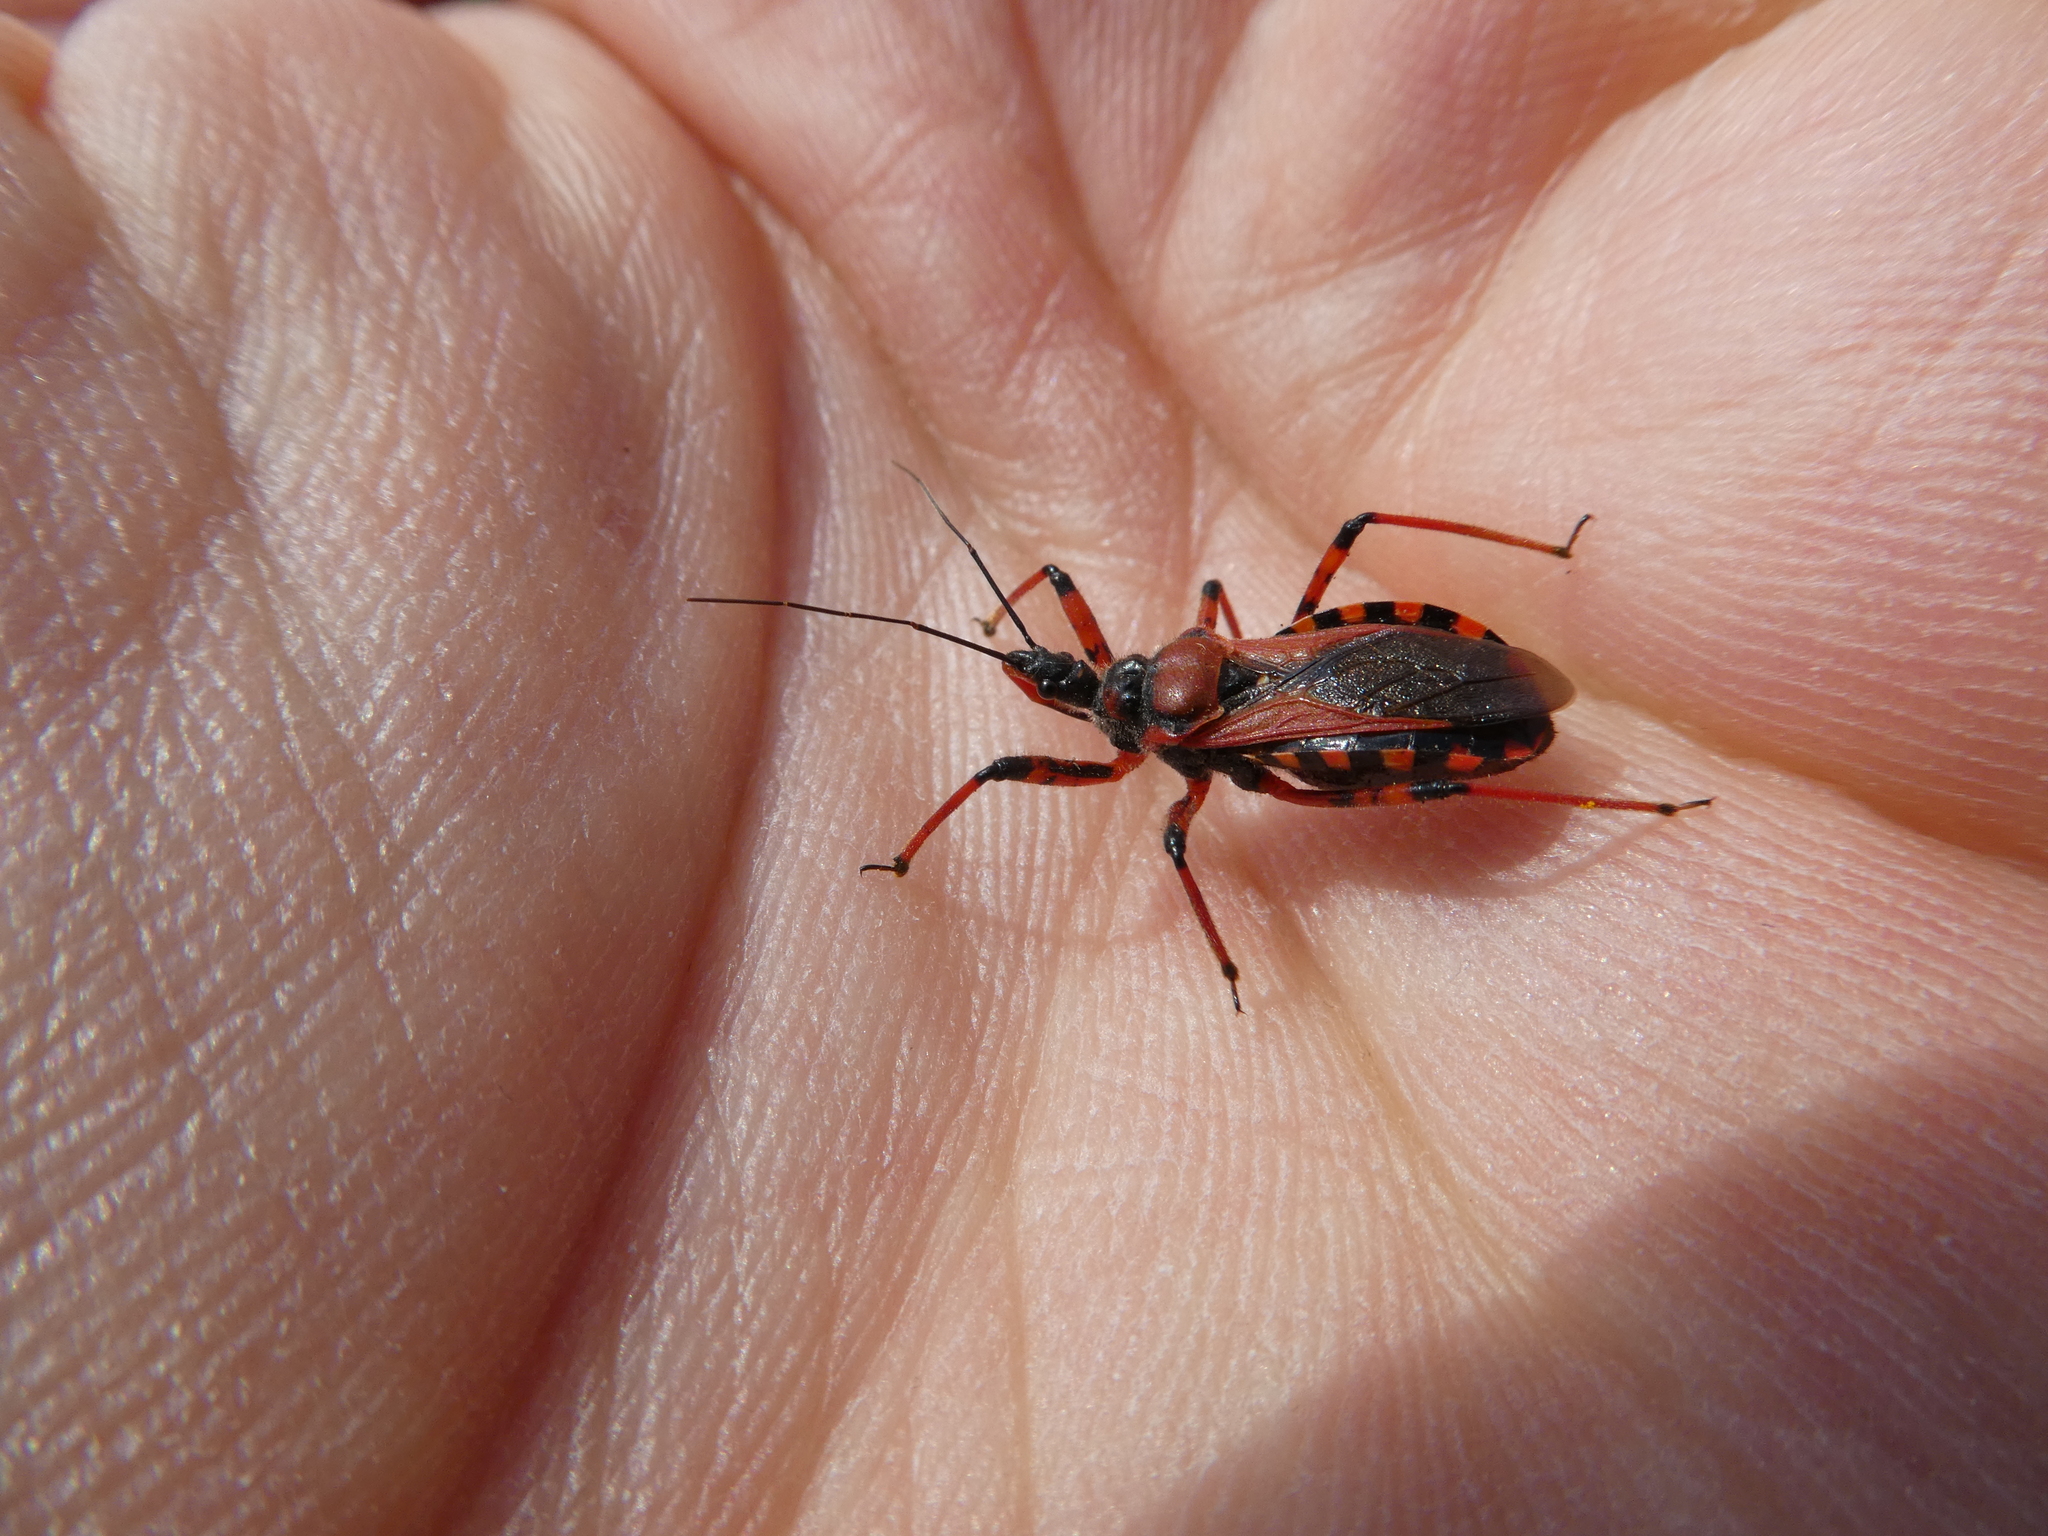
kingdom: Animalia
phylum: Arthropoda
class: Insecta
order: Hemiptera
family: Reduviidae
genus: Rhynocoris
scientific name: Rhynocoris iracundus
